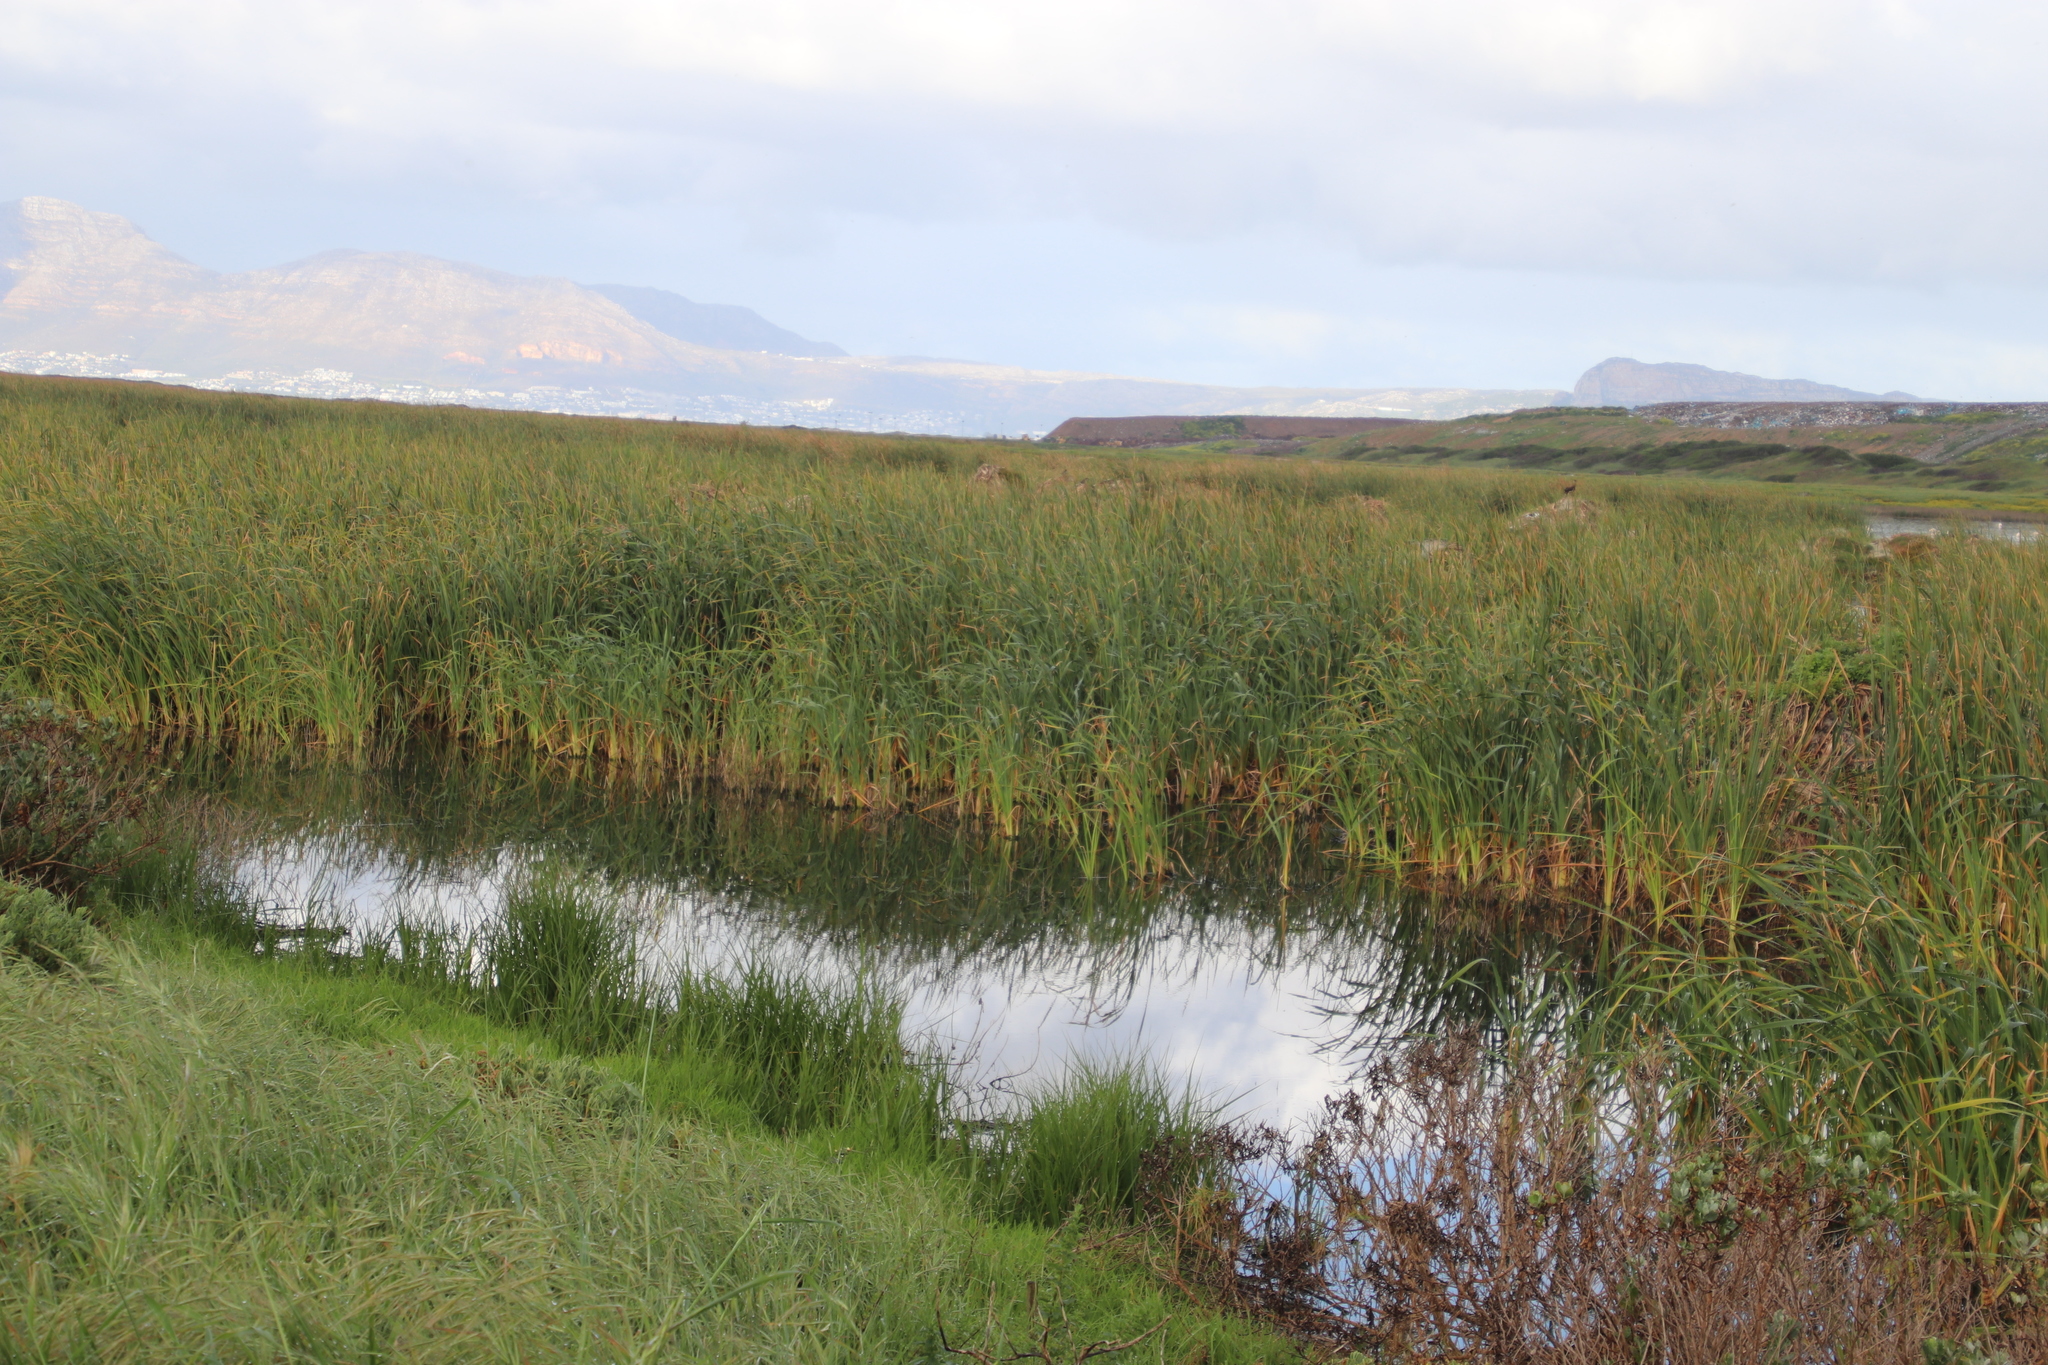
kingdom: Plantae
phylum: Tracheophyta
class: Liliopsida
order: Poales
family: Typhaceae
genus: Typha
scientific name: Typha capensis
